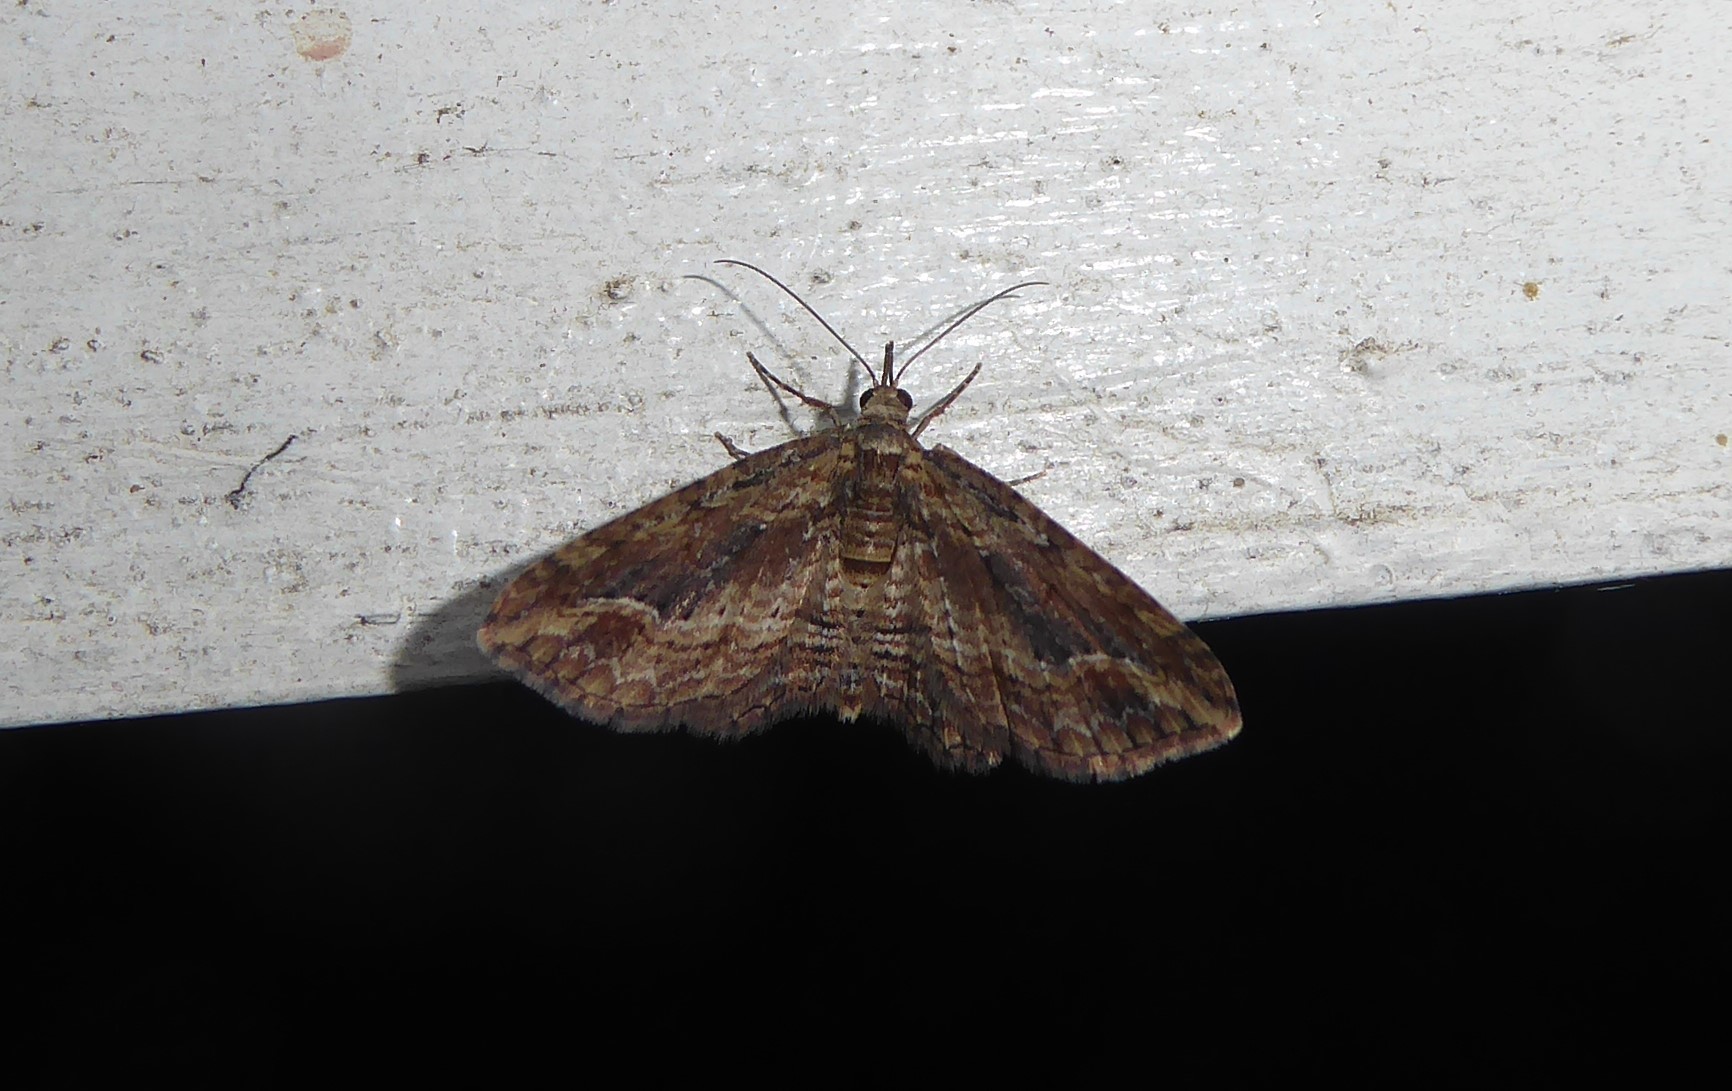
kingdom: Animalia
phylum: Arthropoda
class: Insecta
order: Lepidoptera
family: Geometridae
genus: Chloroclystis
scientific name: Chloroclystis filata
